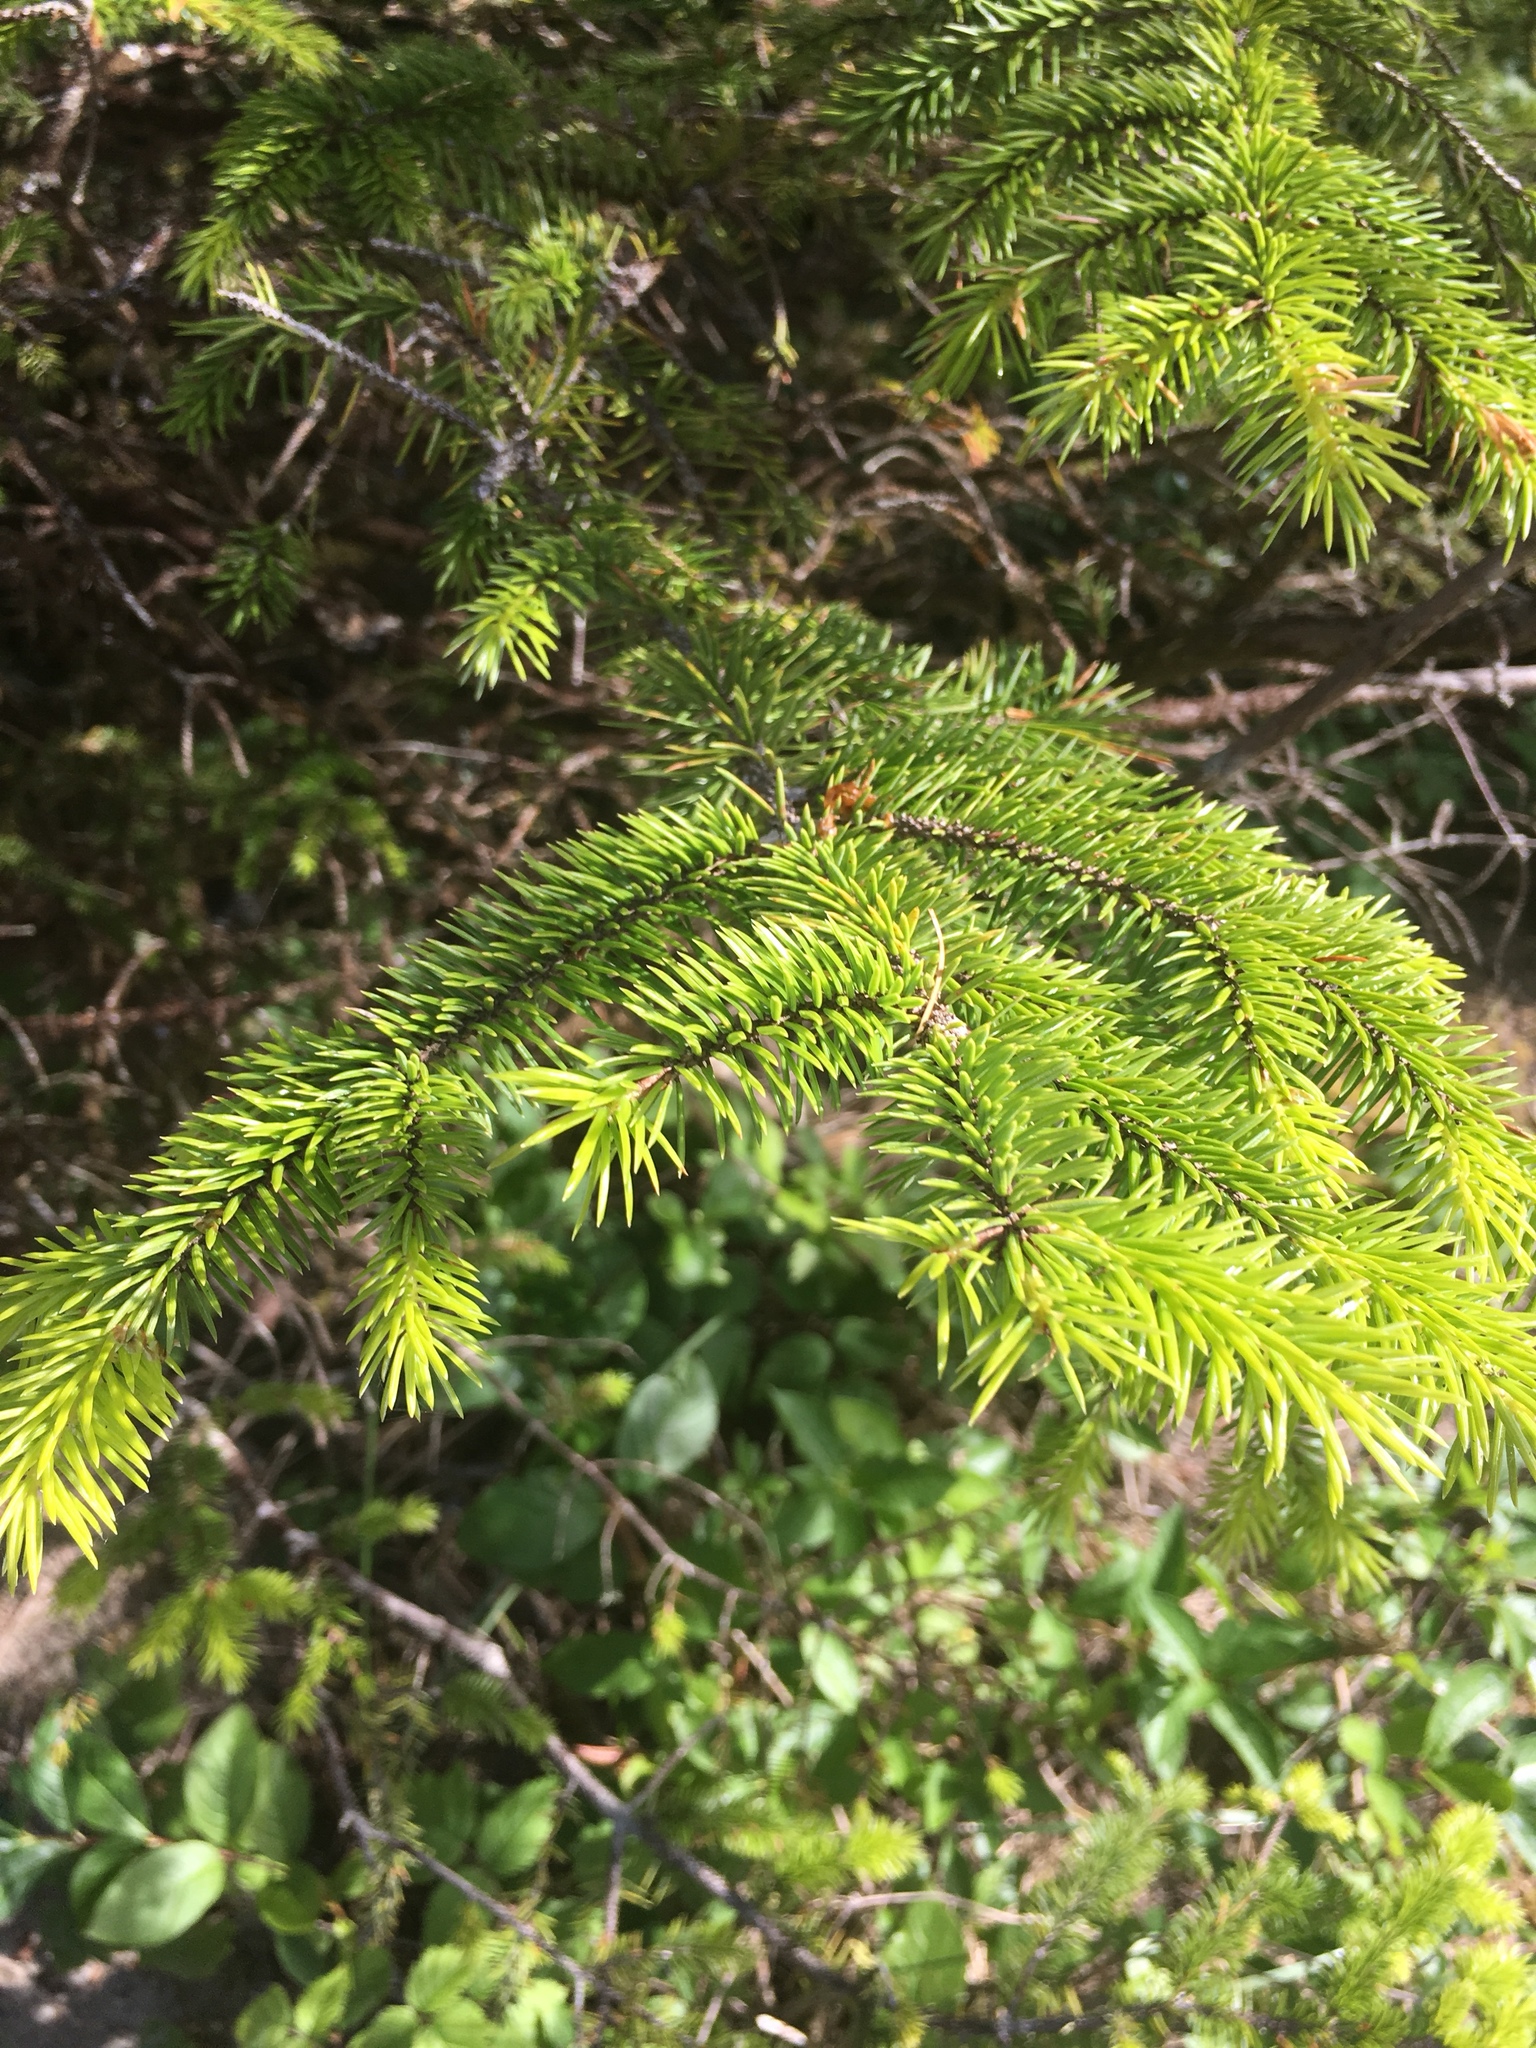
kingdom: Plantae
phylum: Tracheophyta
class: Pinopsida
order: Pinales
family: Pinaceae
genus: Picea
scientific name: Picea sitchensis
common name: Sitka spruce
